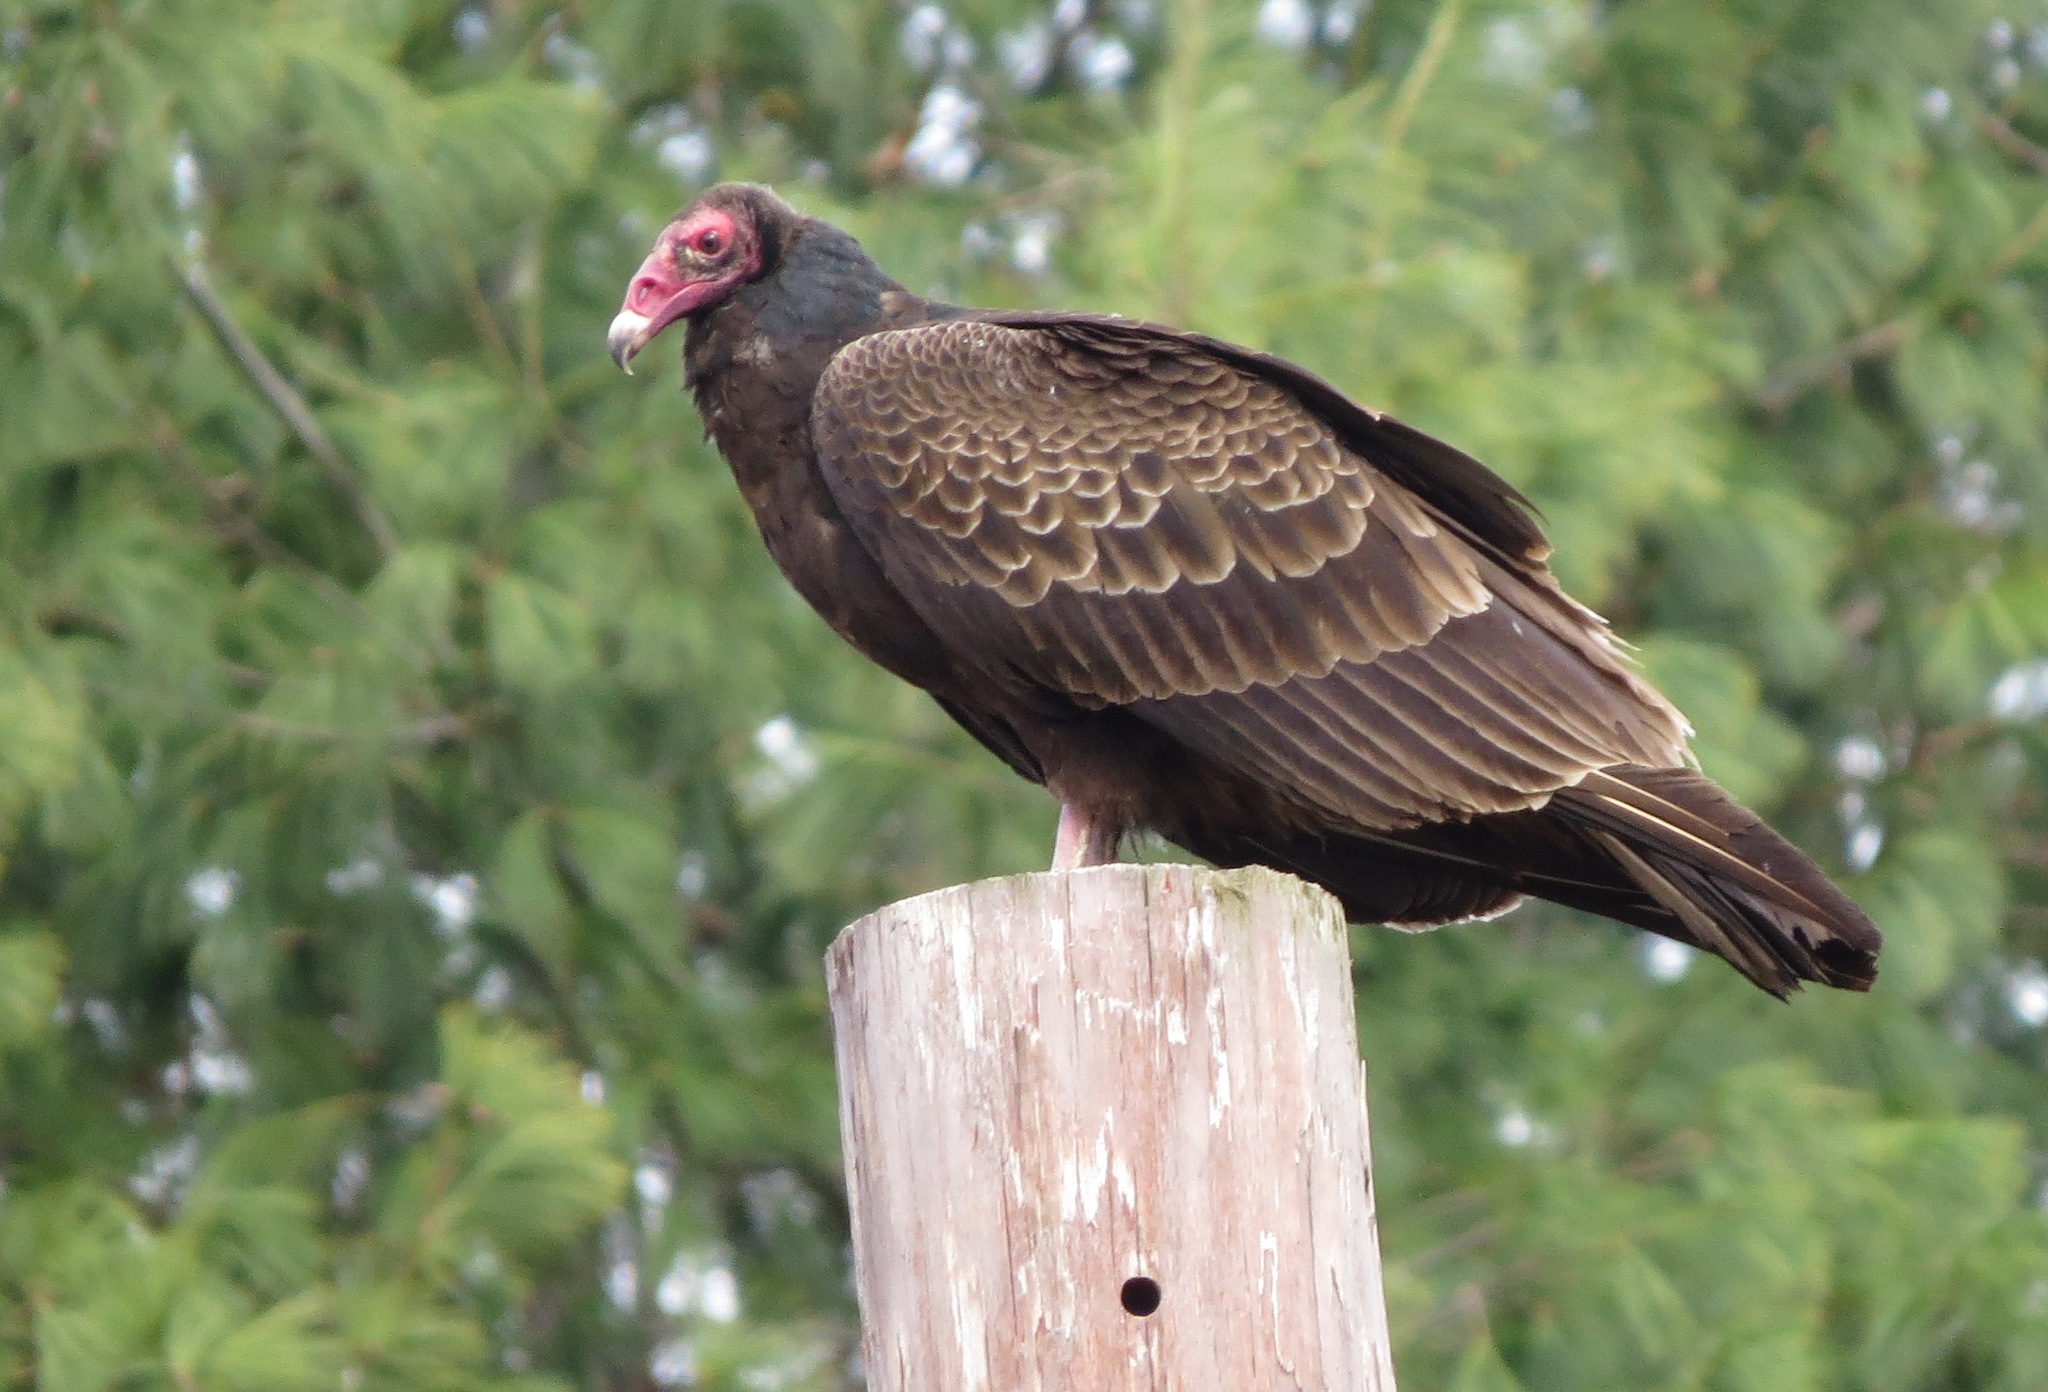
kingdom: Animalia
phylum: Chordata
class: Aves
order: Accipitriformes
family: Cathartidae
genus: Cathartes
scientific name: Cathartes aura
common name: Turkey vulture
